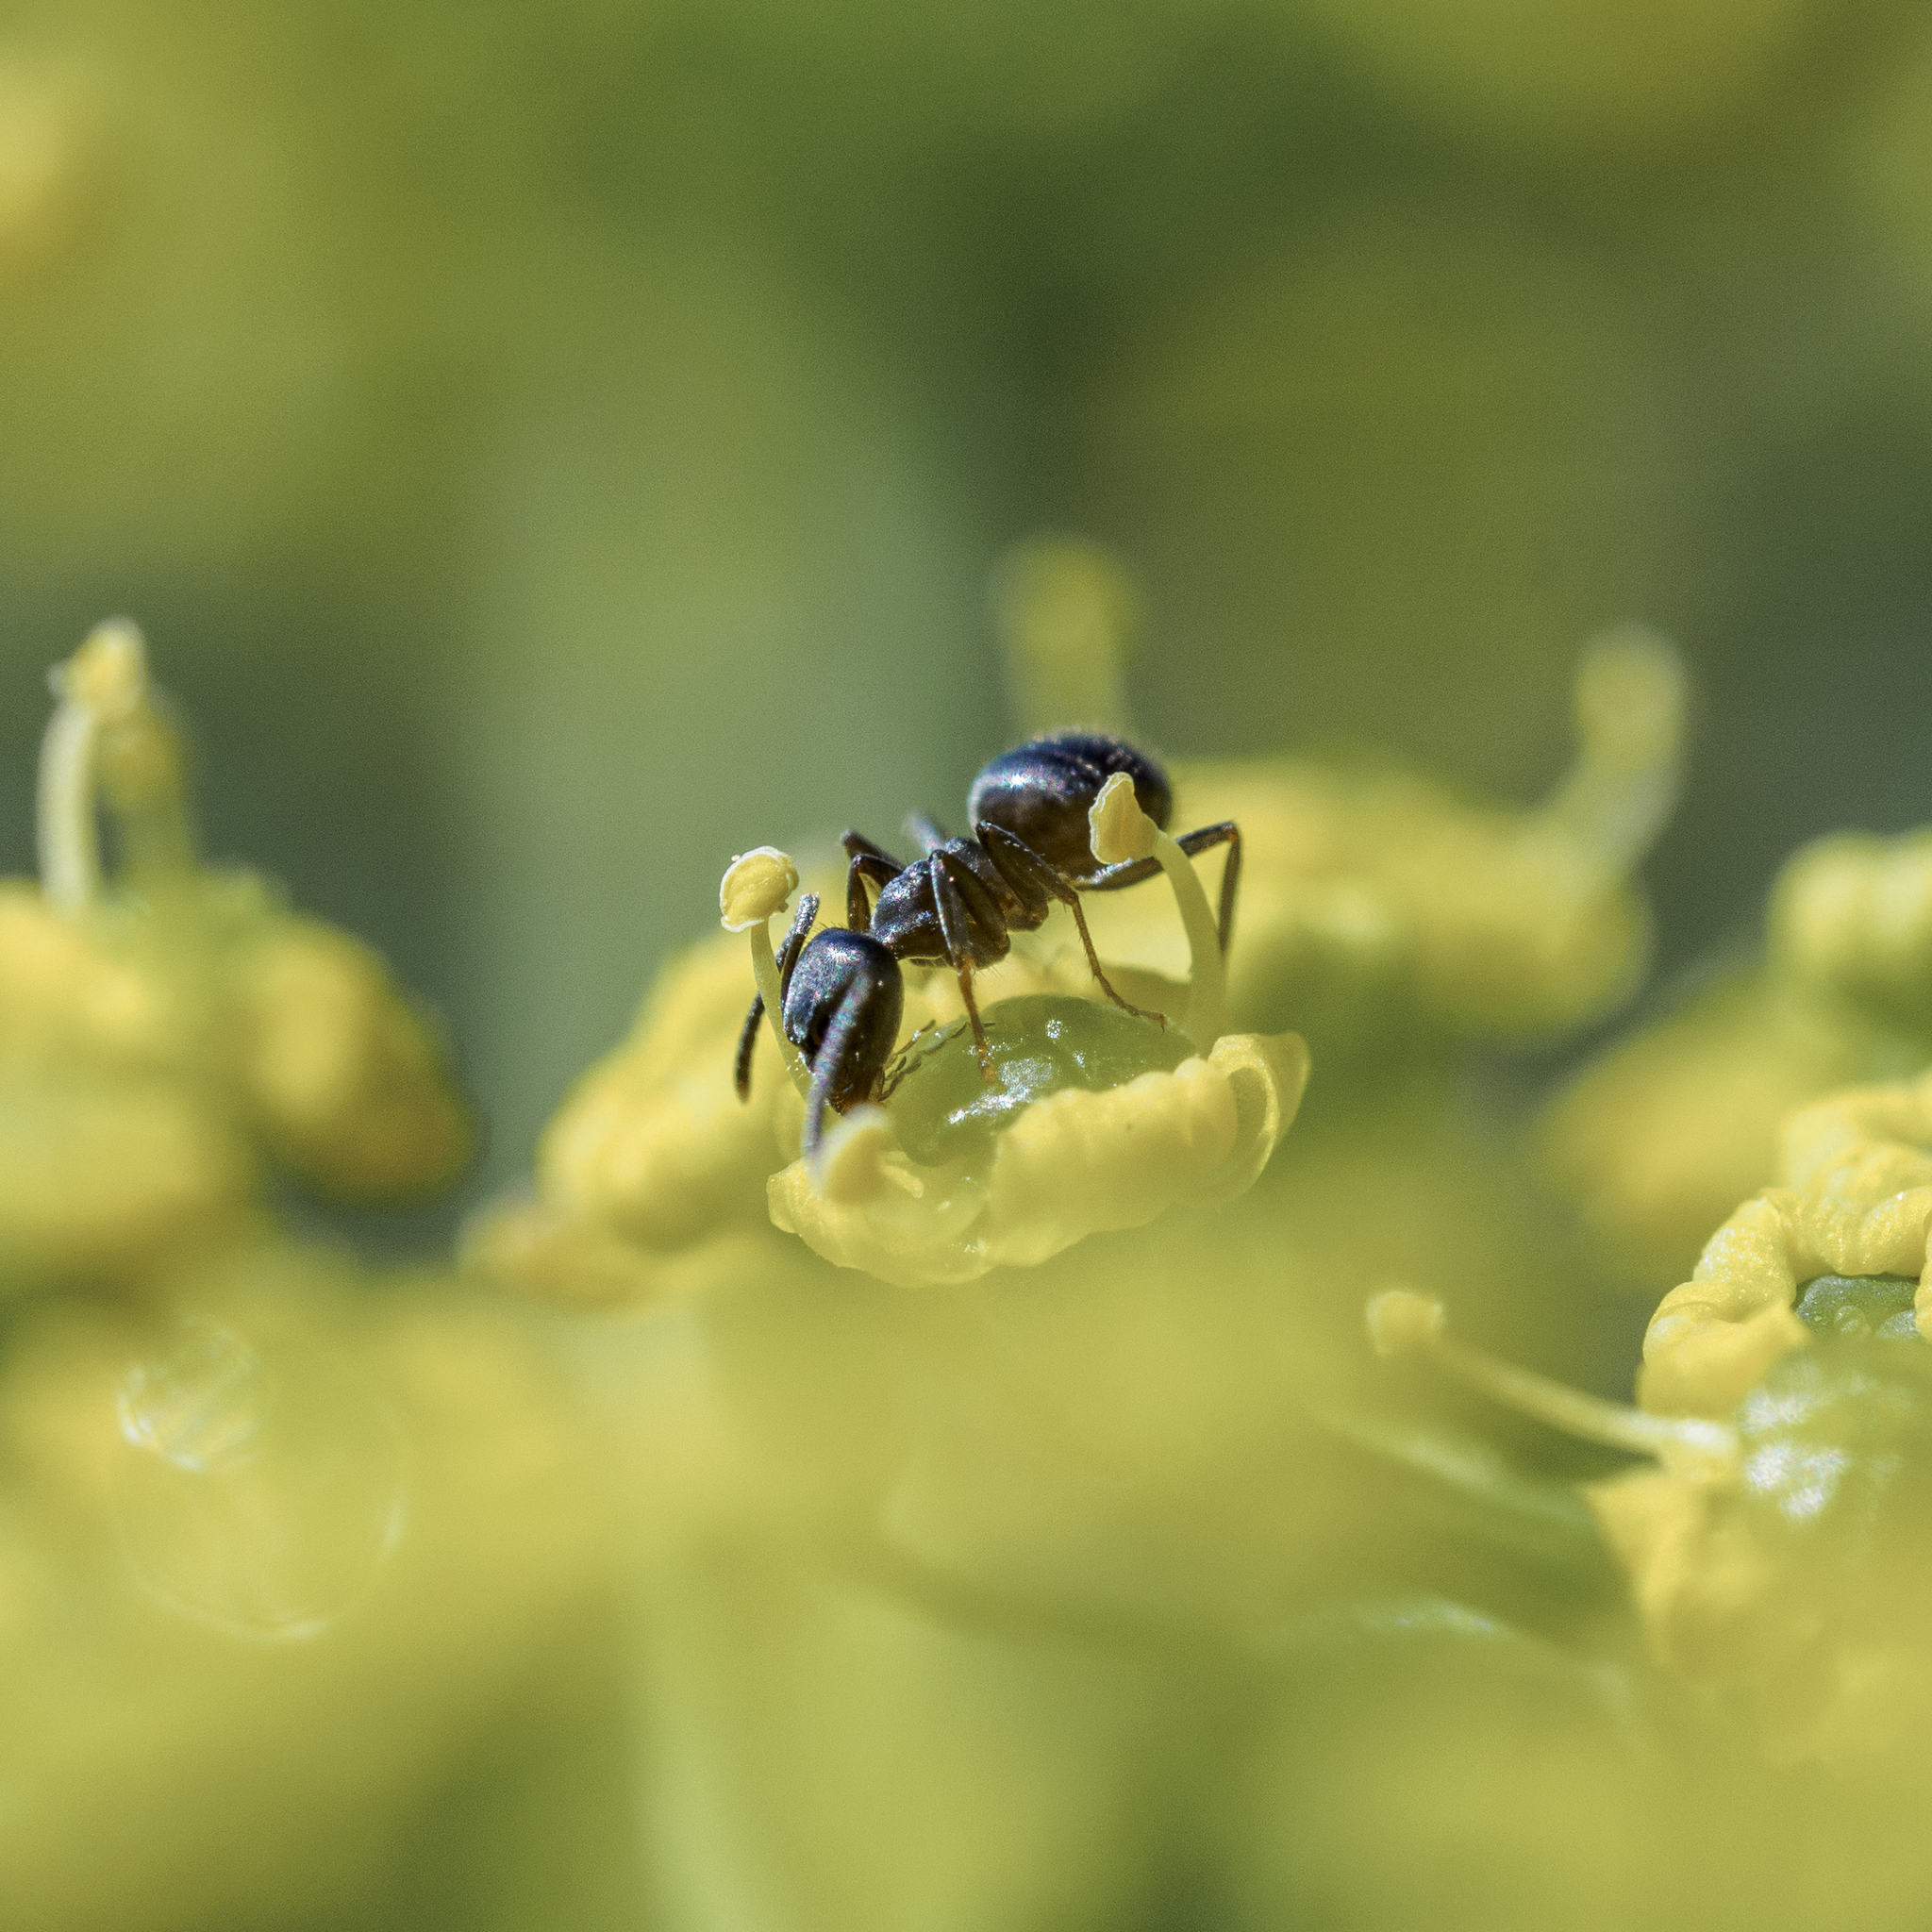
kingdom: Animalia
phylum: Arthropoda
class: Insecta
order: Hymenoptera
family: Formicidae
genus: Lasius
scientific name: Lasius niger
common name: Small black ant
